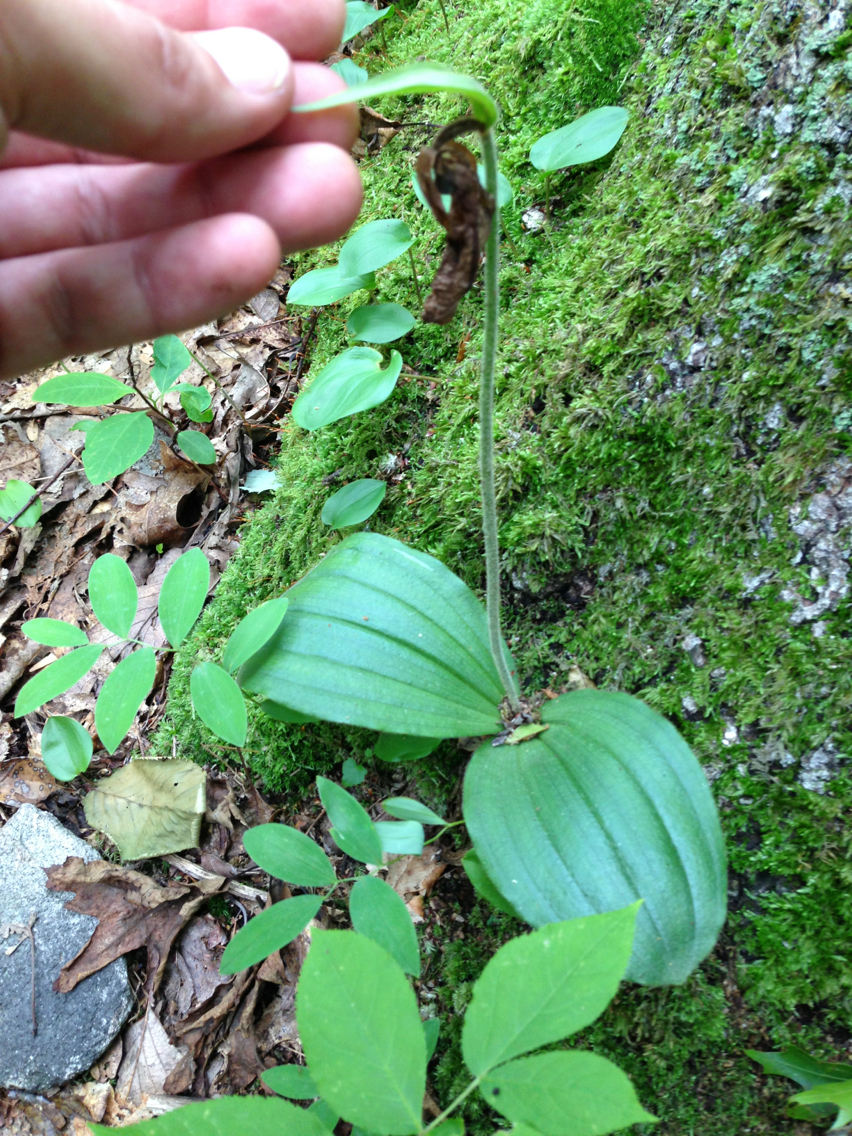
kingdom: Plantae
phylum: Tracheophyta
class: Liliopsida
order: Asparagales
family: Orchidaceae
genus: Cypripedium
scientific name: Cypripedium acaule
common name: Pink lady's-slipper
